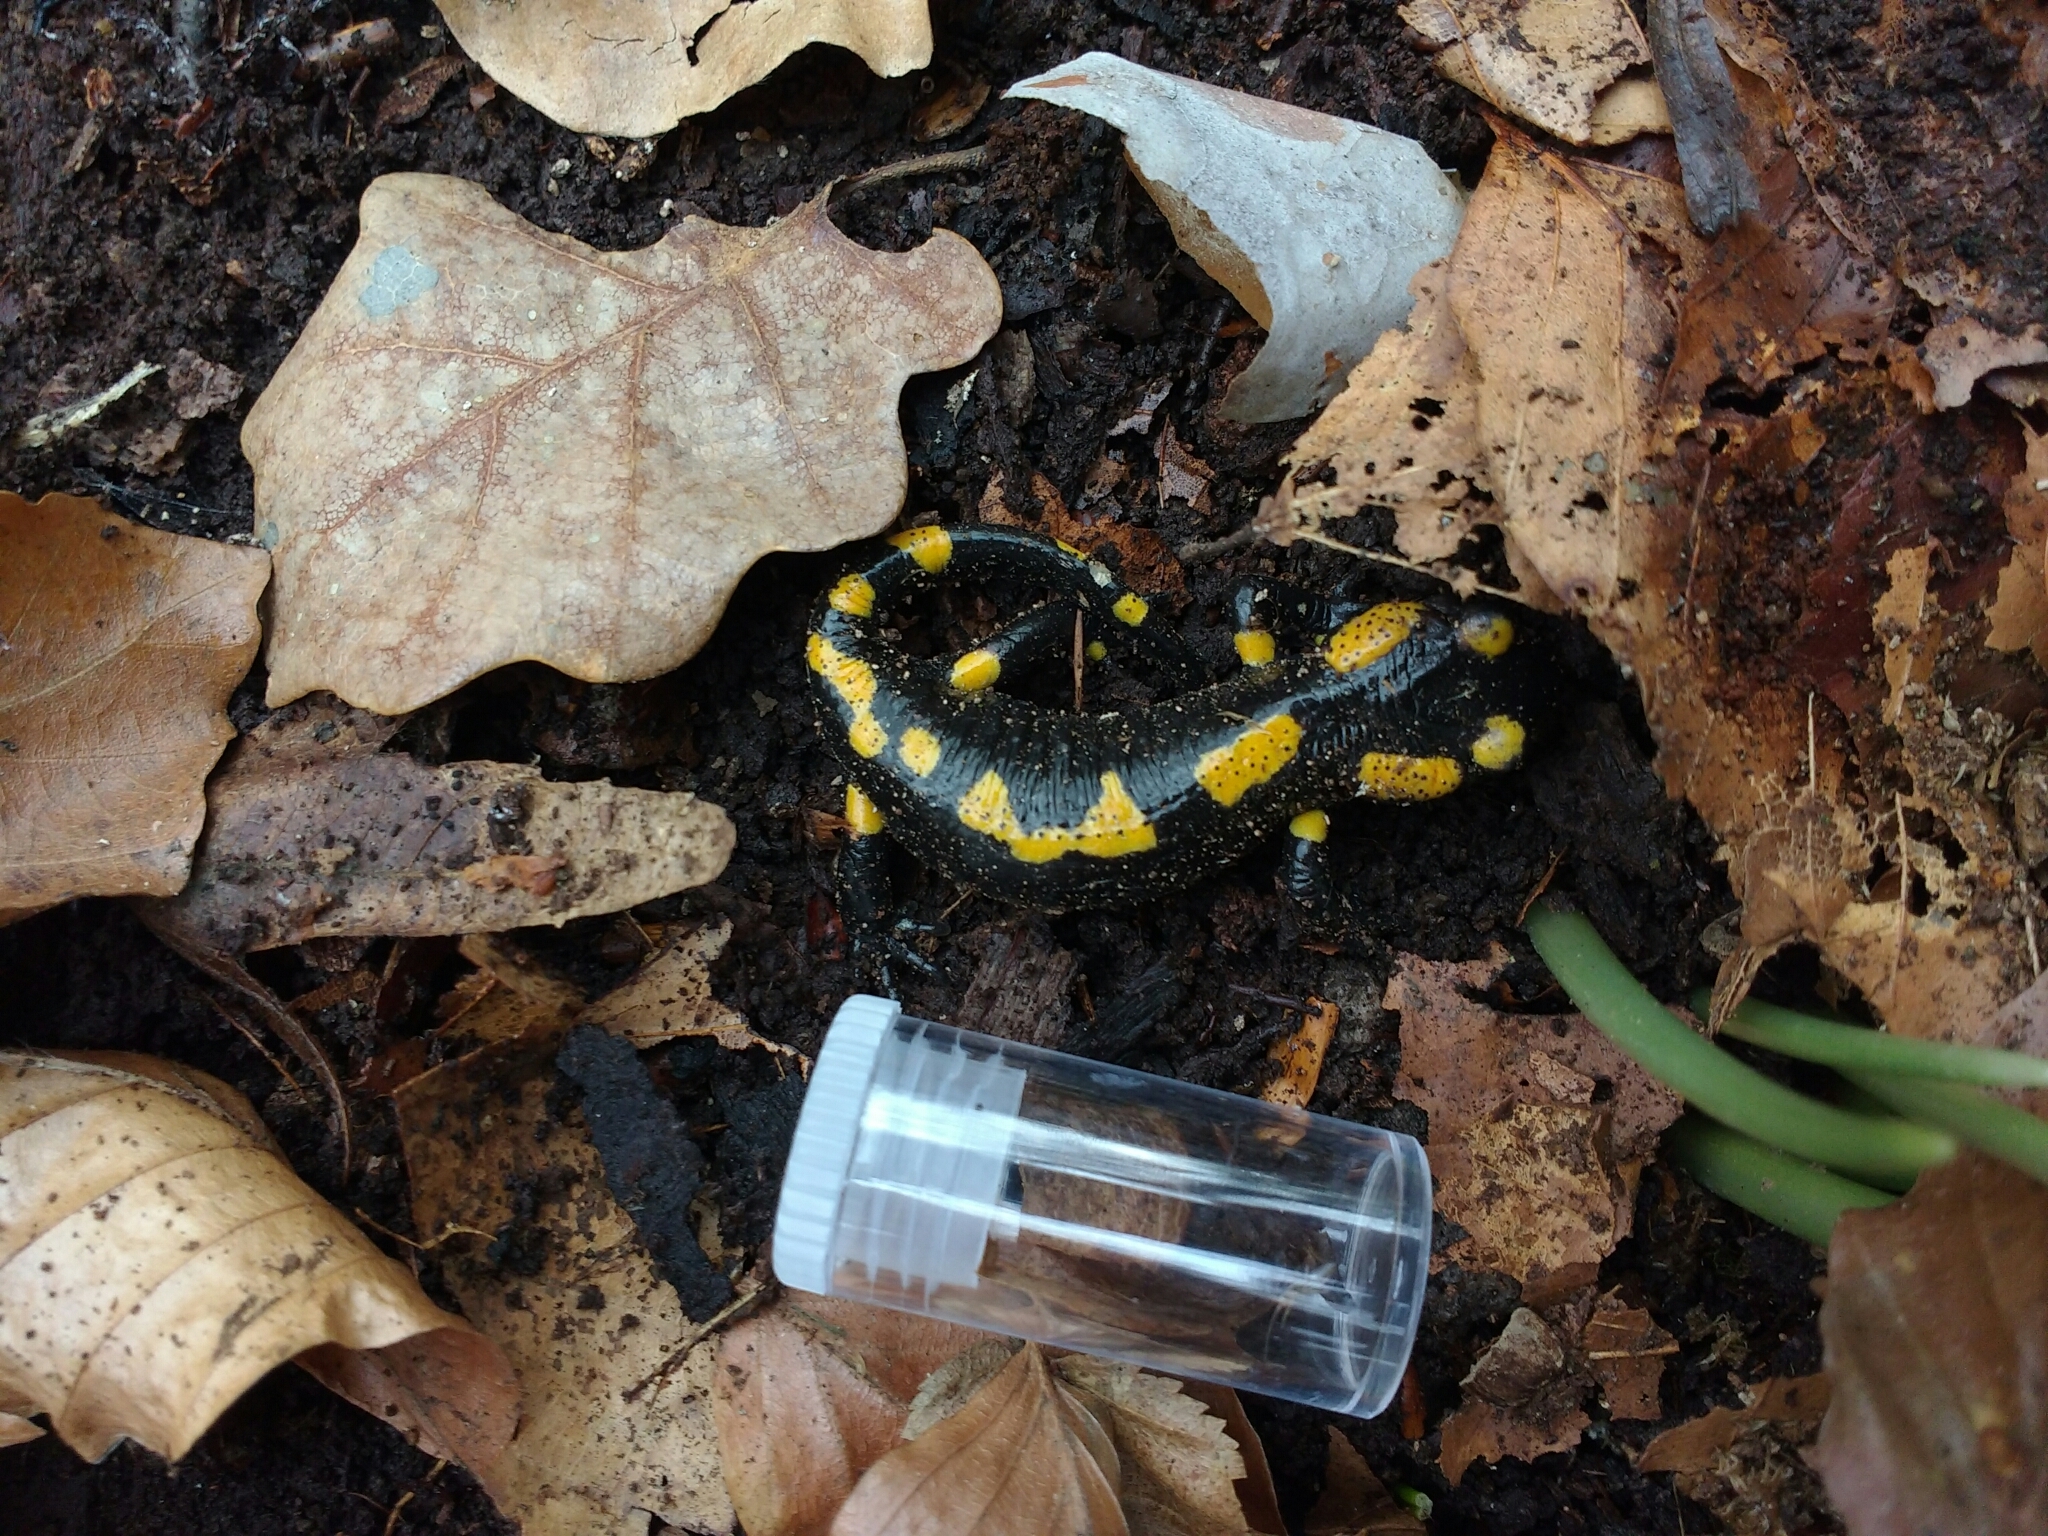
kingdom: Animalia
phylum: Chordata
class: Amphibia
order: Caudata
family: Salamandridae
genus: Salamandra
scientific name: Salamandra salamandra
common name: Fire salamander
